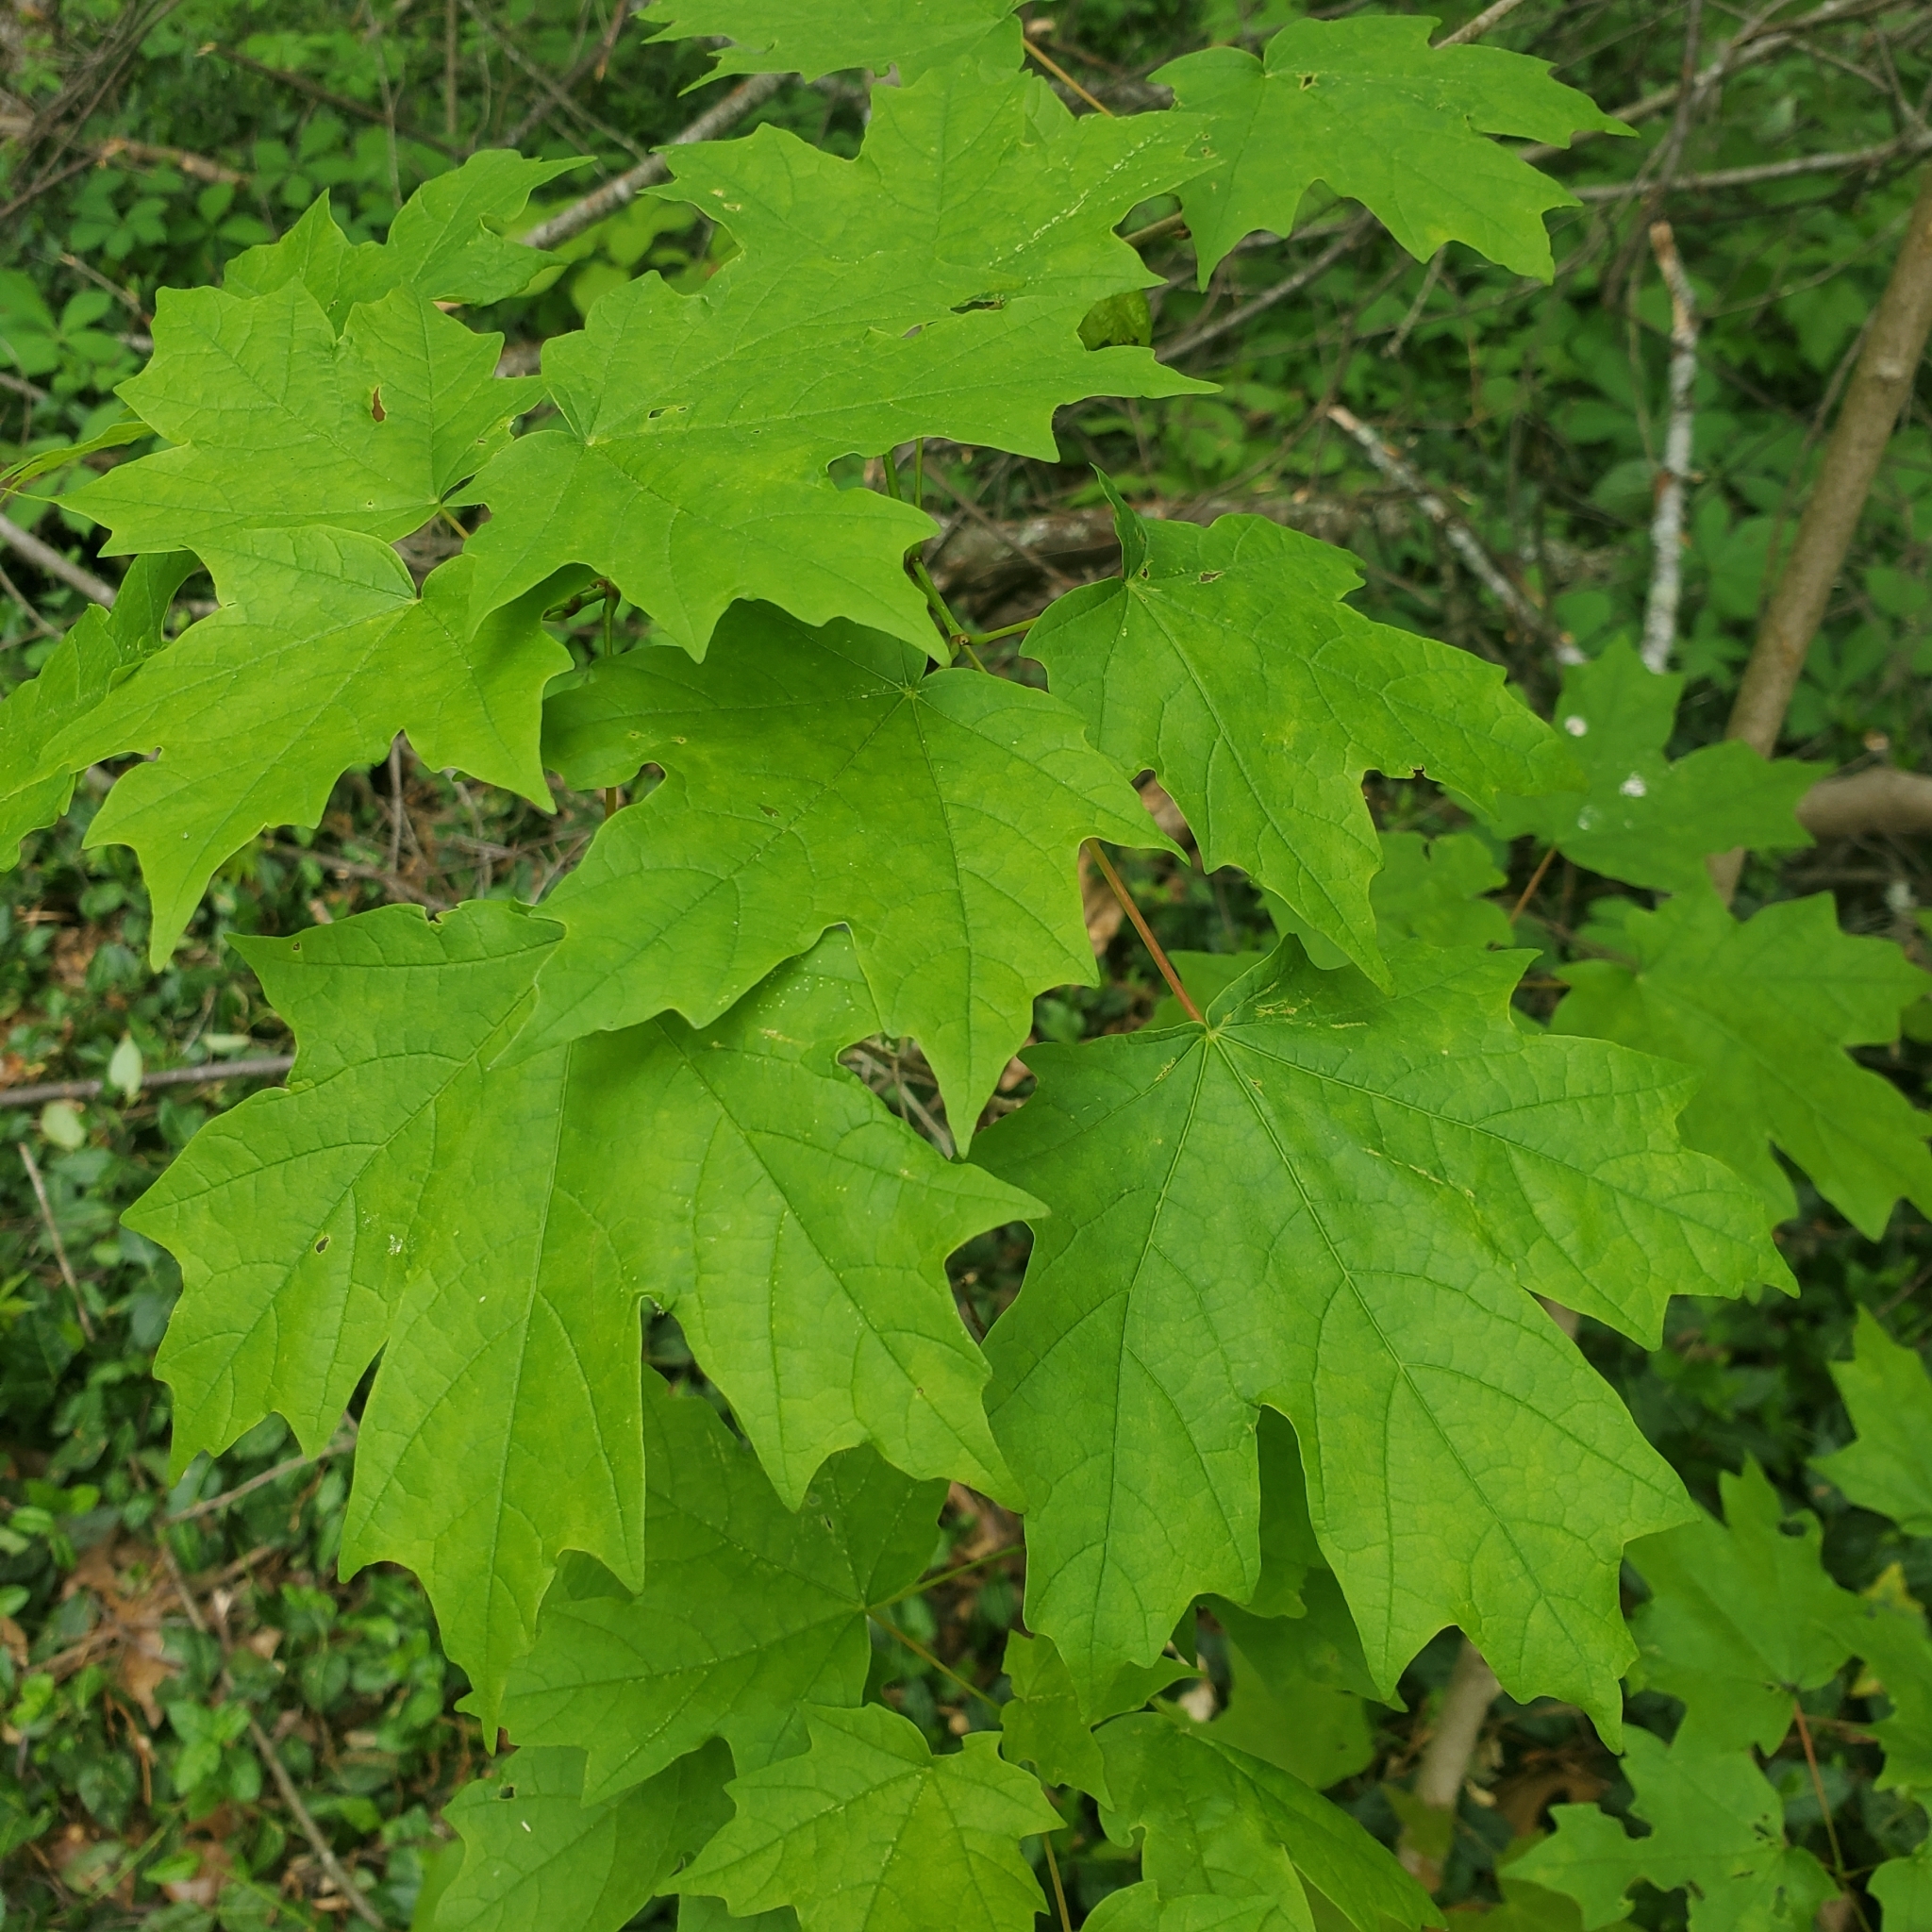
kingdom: Plantae
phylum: Tracheophyta
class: Magnoliopsida
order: Sapindales
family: Sapindaceae
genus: Acer
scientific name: Acer saccharum
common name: Sugar maple
